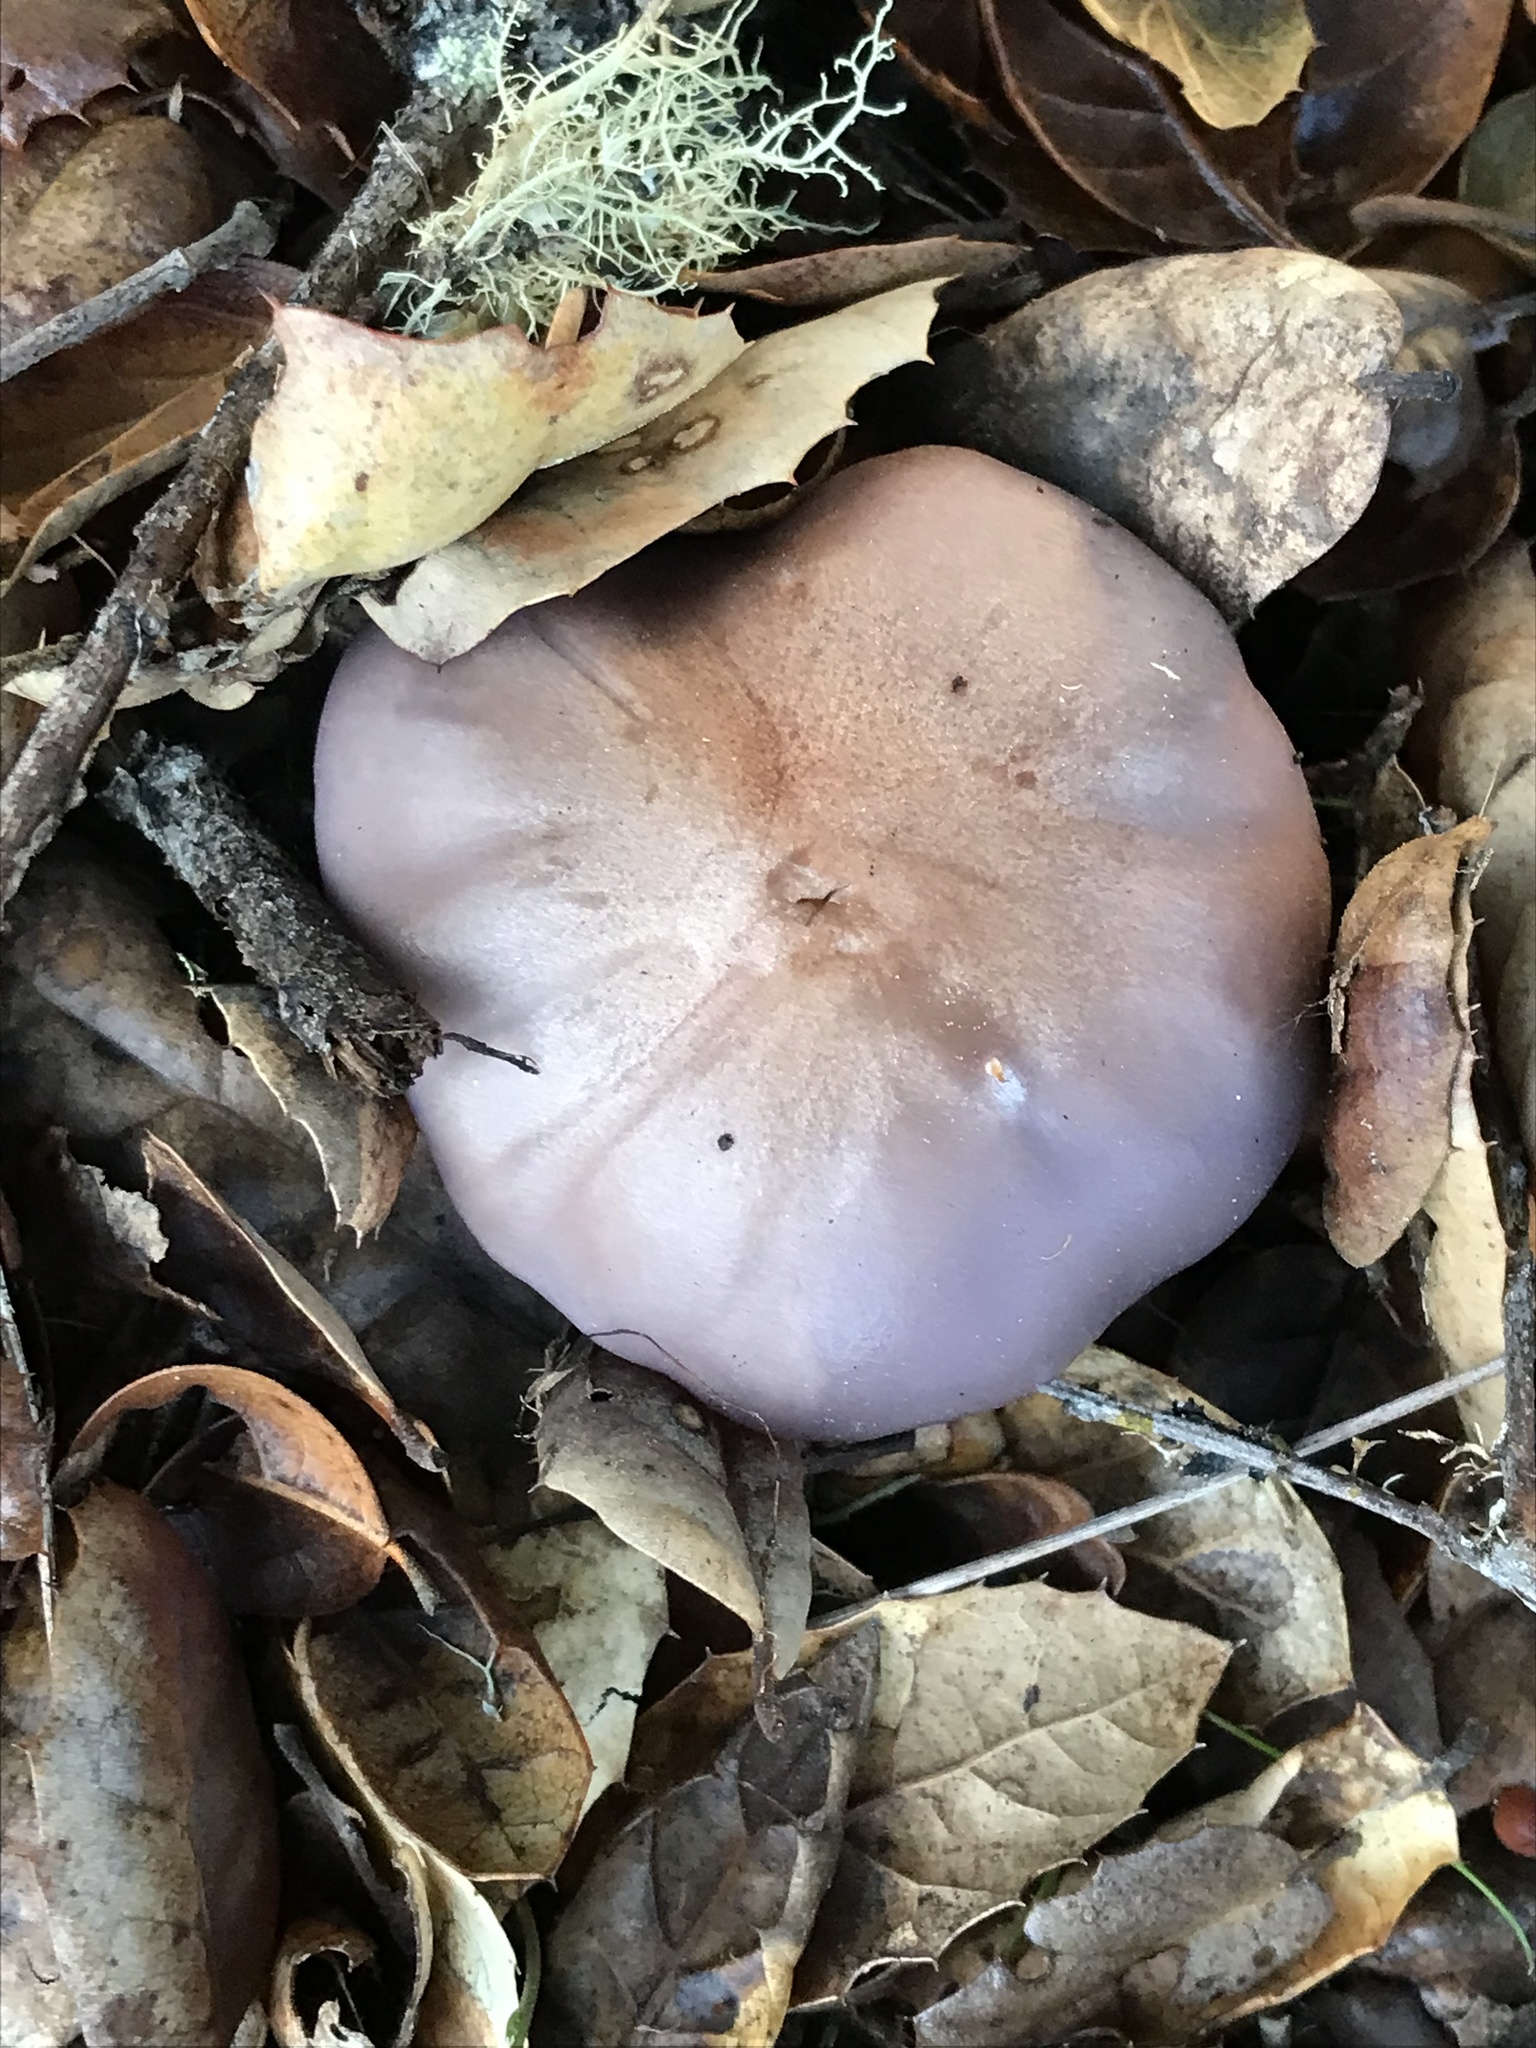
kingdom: Fungi
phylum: Basidiomycota
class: Agaricomycetes
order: Agaricales
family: Tricholomataceae
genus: Collybia
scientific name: Collybia
